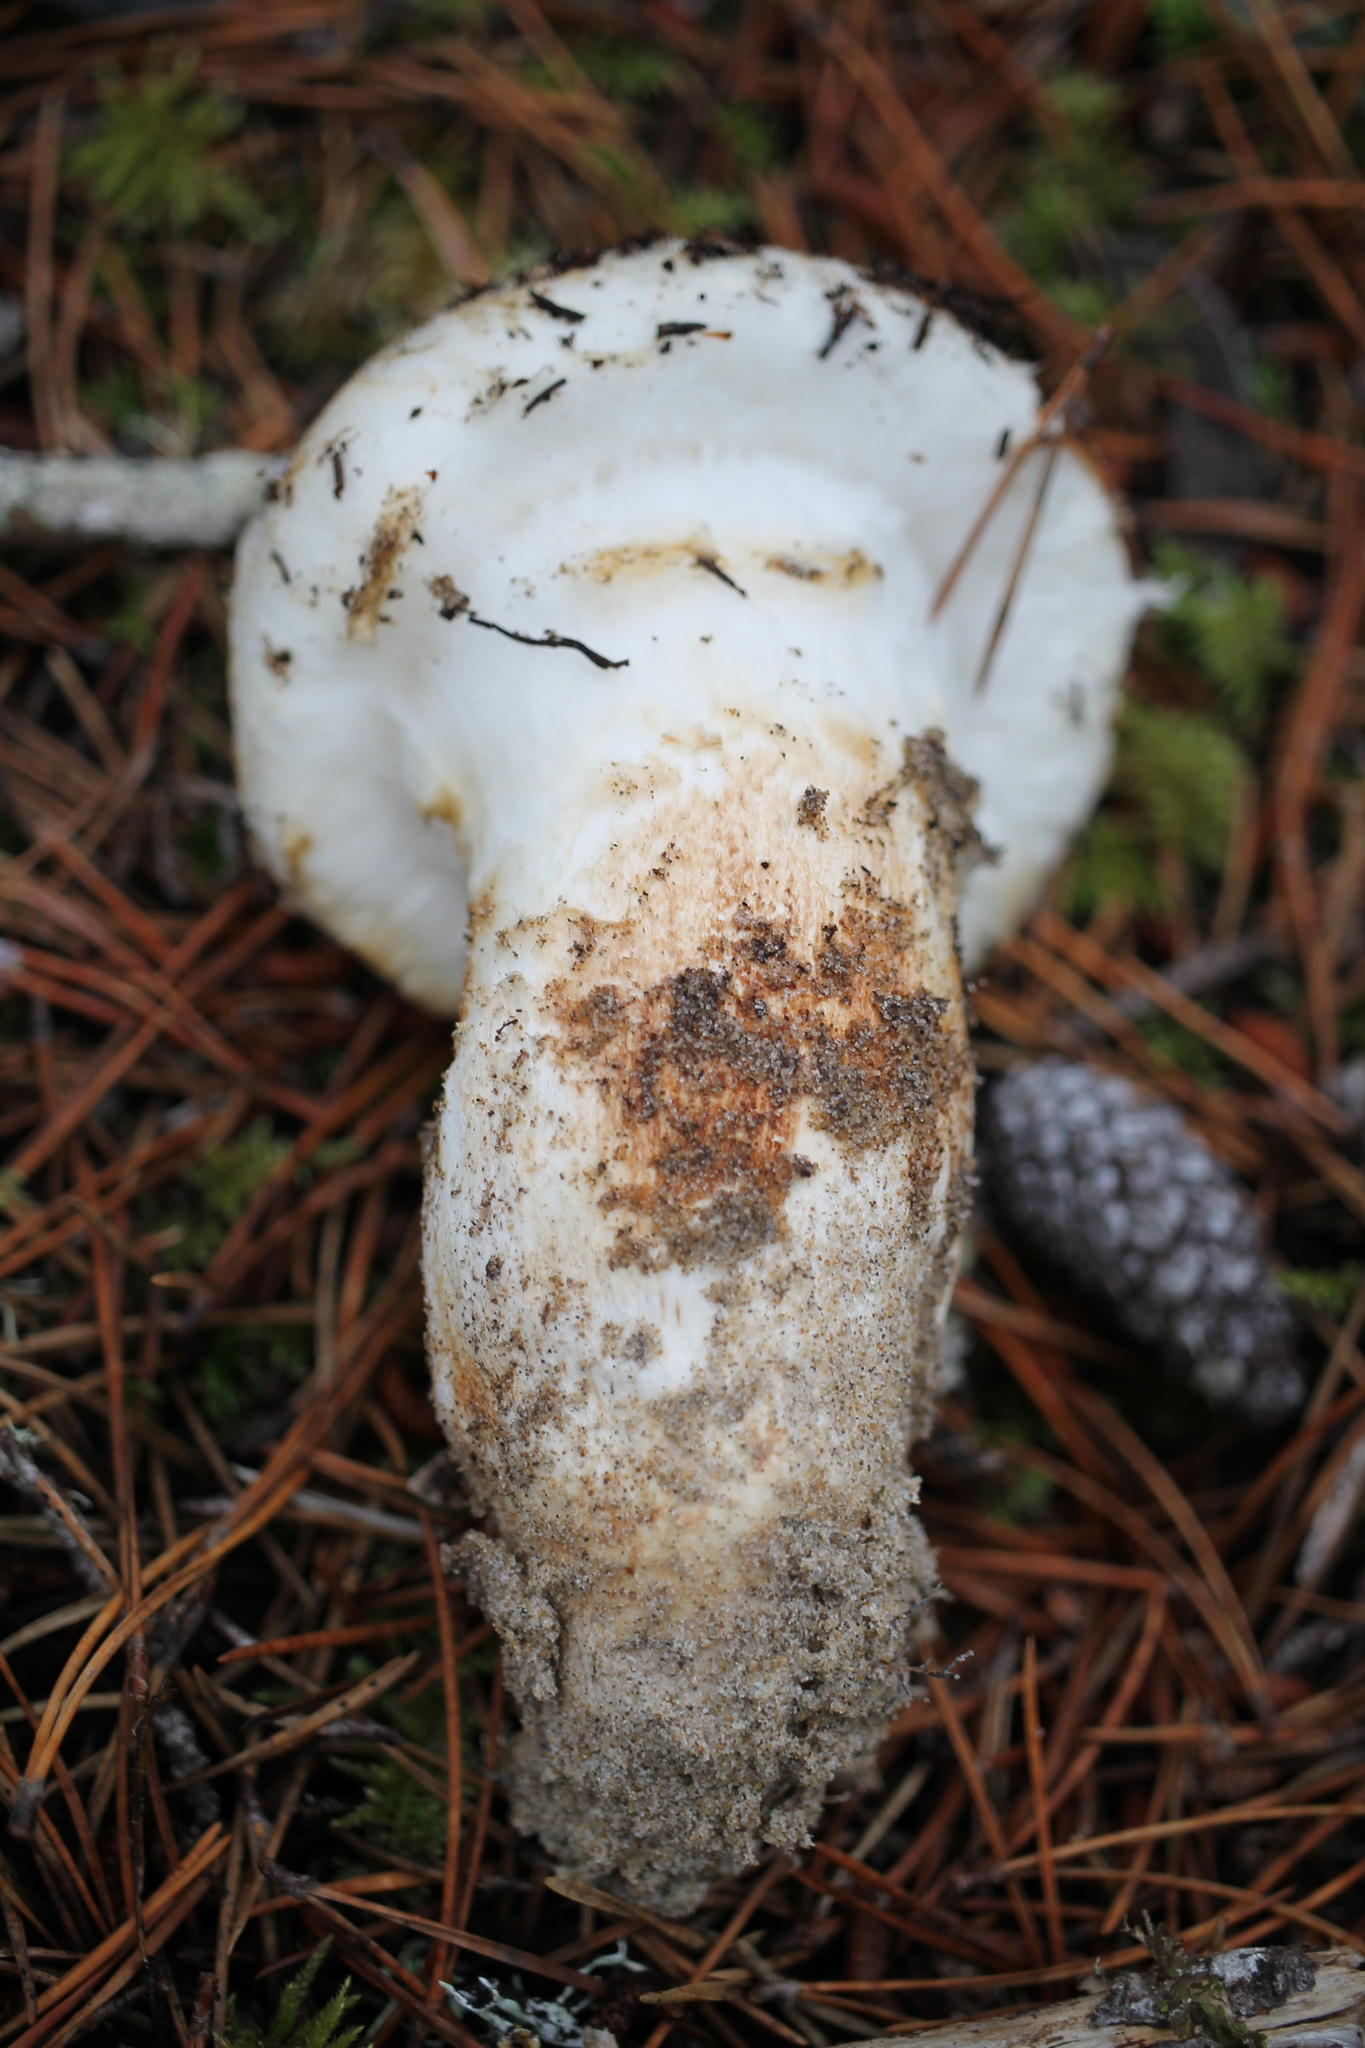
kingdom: Fungi
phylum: Basidiomycota
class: Agaricomycetes
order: Agaricales
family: Tricholomataceae
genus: Tricholoma
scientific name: Tricholoma murrillianum
